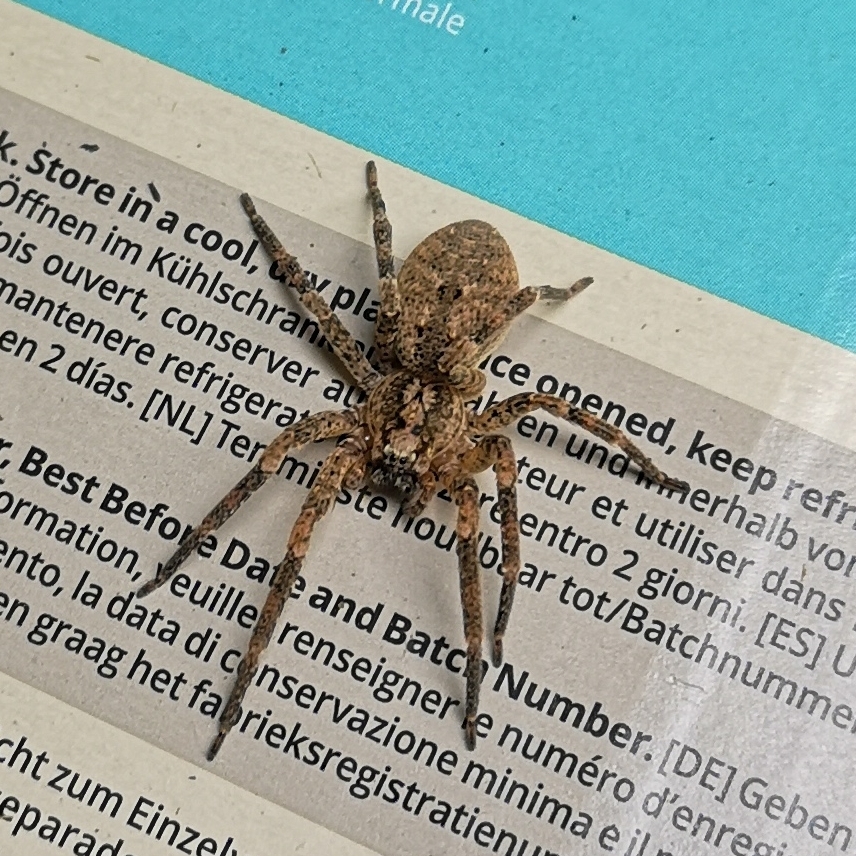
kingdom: Animalia
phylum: Arthropoda
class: Arachnida
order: Araneae
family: Zoropsidae
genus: Zoropsis
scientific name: Zoropsis spinimana
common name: Zoropsid spider
